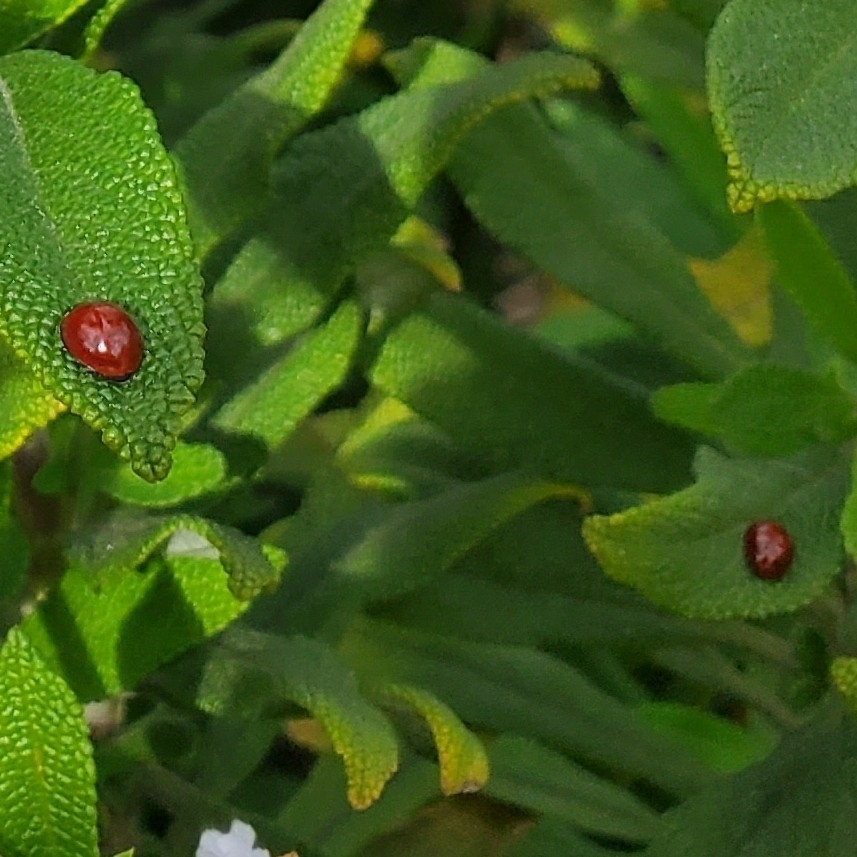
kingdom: Animalia
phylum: Arthropoda
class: Insecta
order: Coleoptera
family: Coccinellidae
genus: Cycloneda
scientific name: Cycloneda
